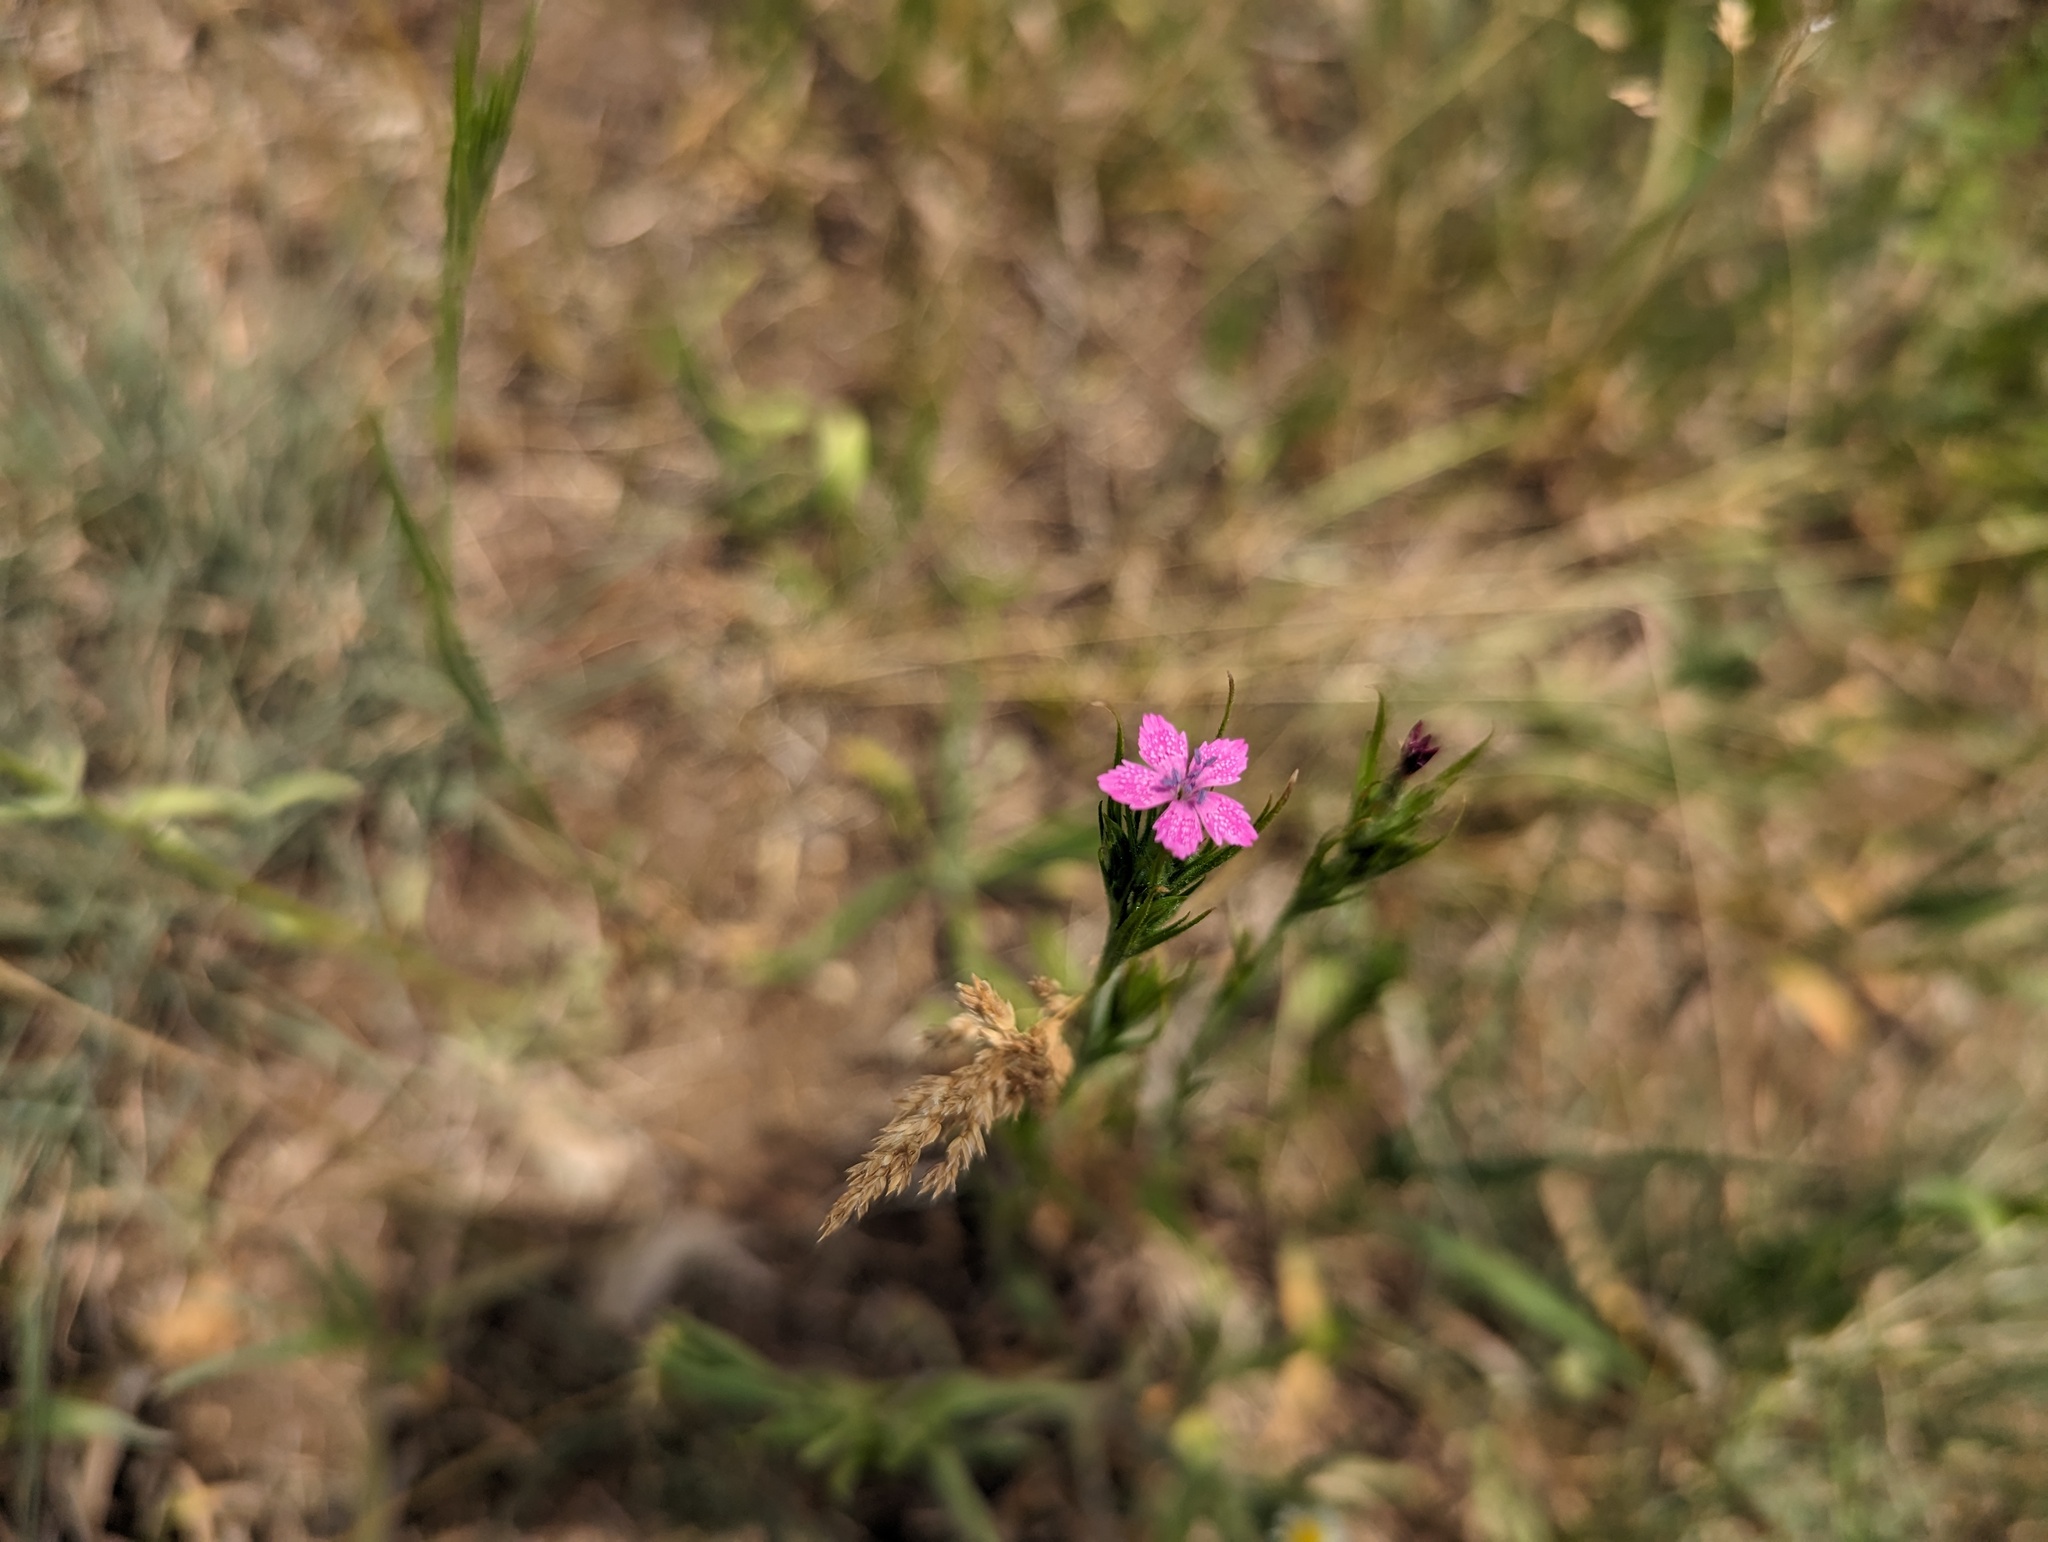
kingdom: Plantae
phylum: Tracheophyta
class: Magnoliopsida
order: Caryophyllales
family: Caryophyllaceae
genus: Dianthus
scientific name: Dianthus armeria
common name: Deptford pink
